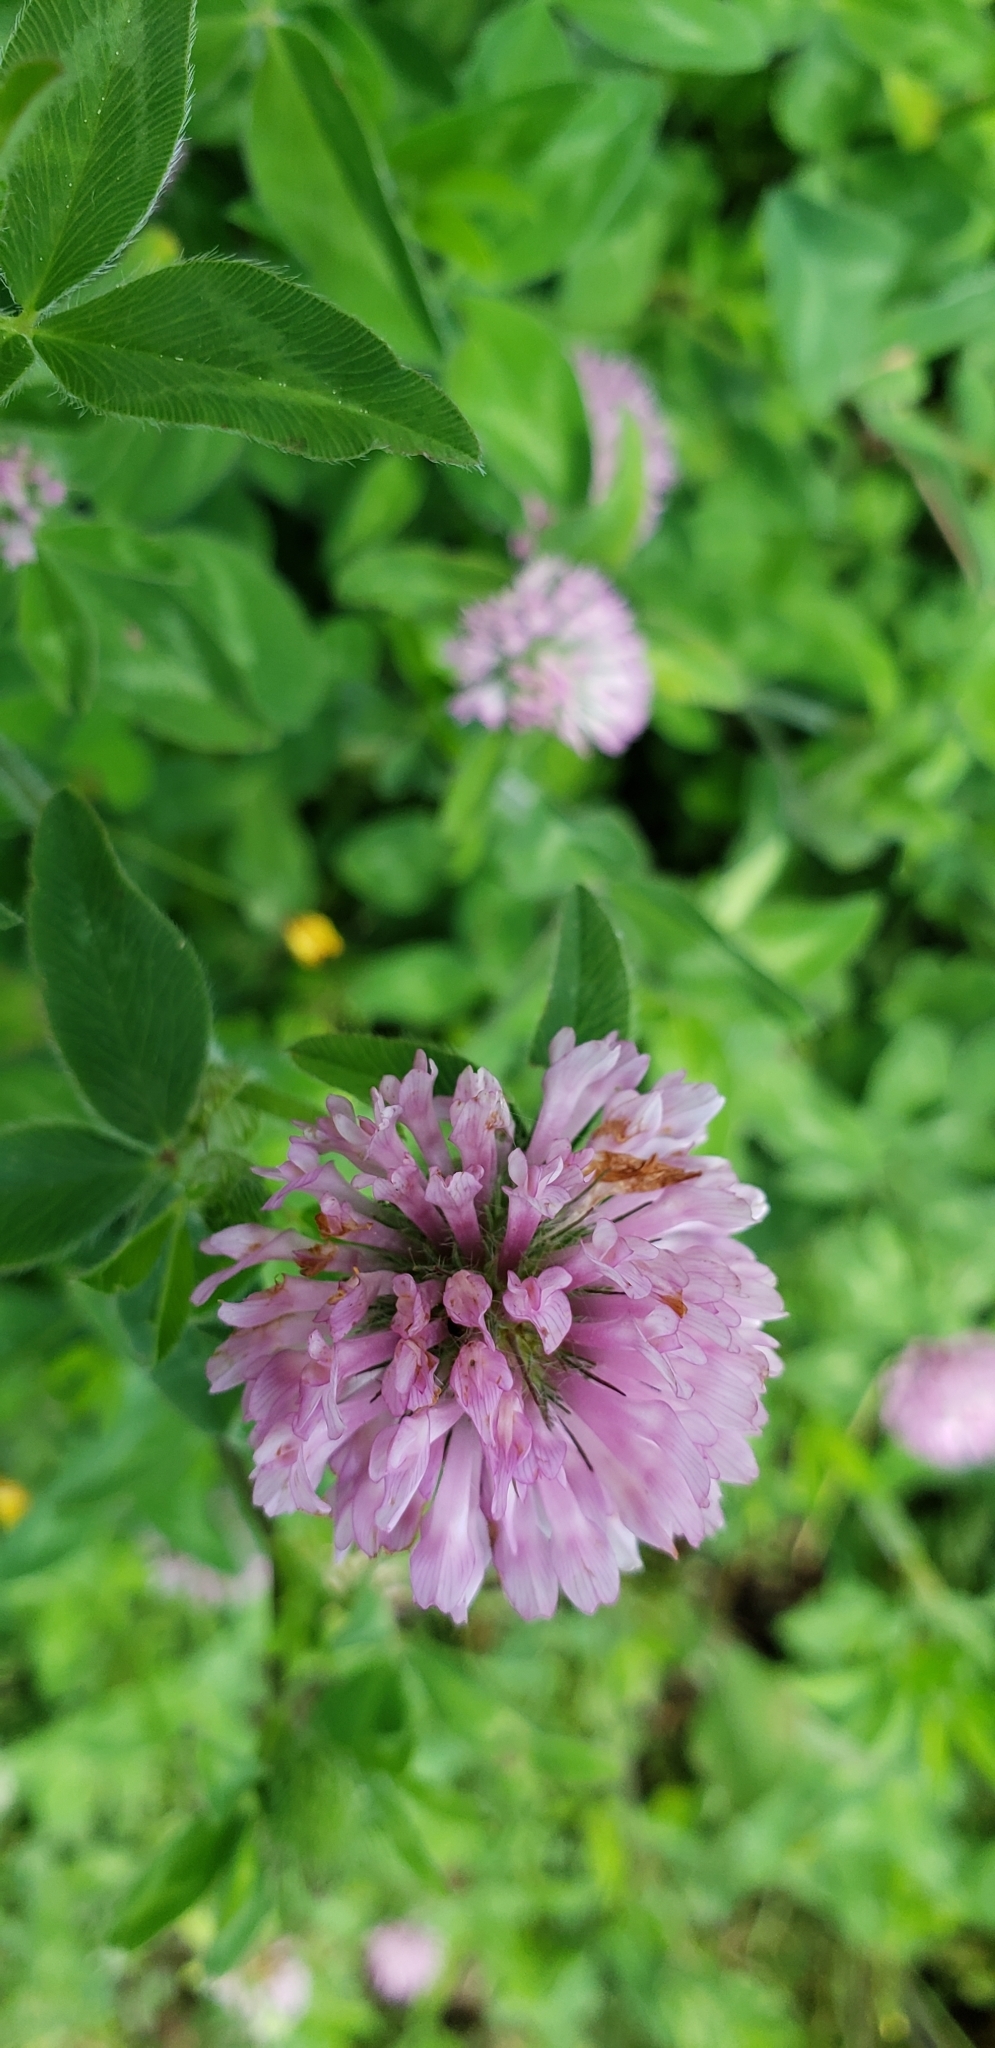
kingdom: Plantae
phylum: Tracheophyta
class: Magnoliopsida
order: Fabales
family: Fabaceae
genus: Trifolium
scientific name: Trifolium pratense
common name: Red clover
